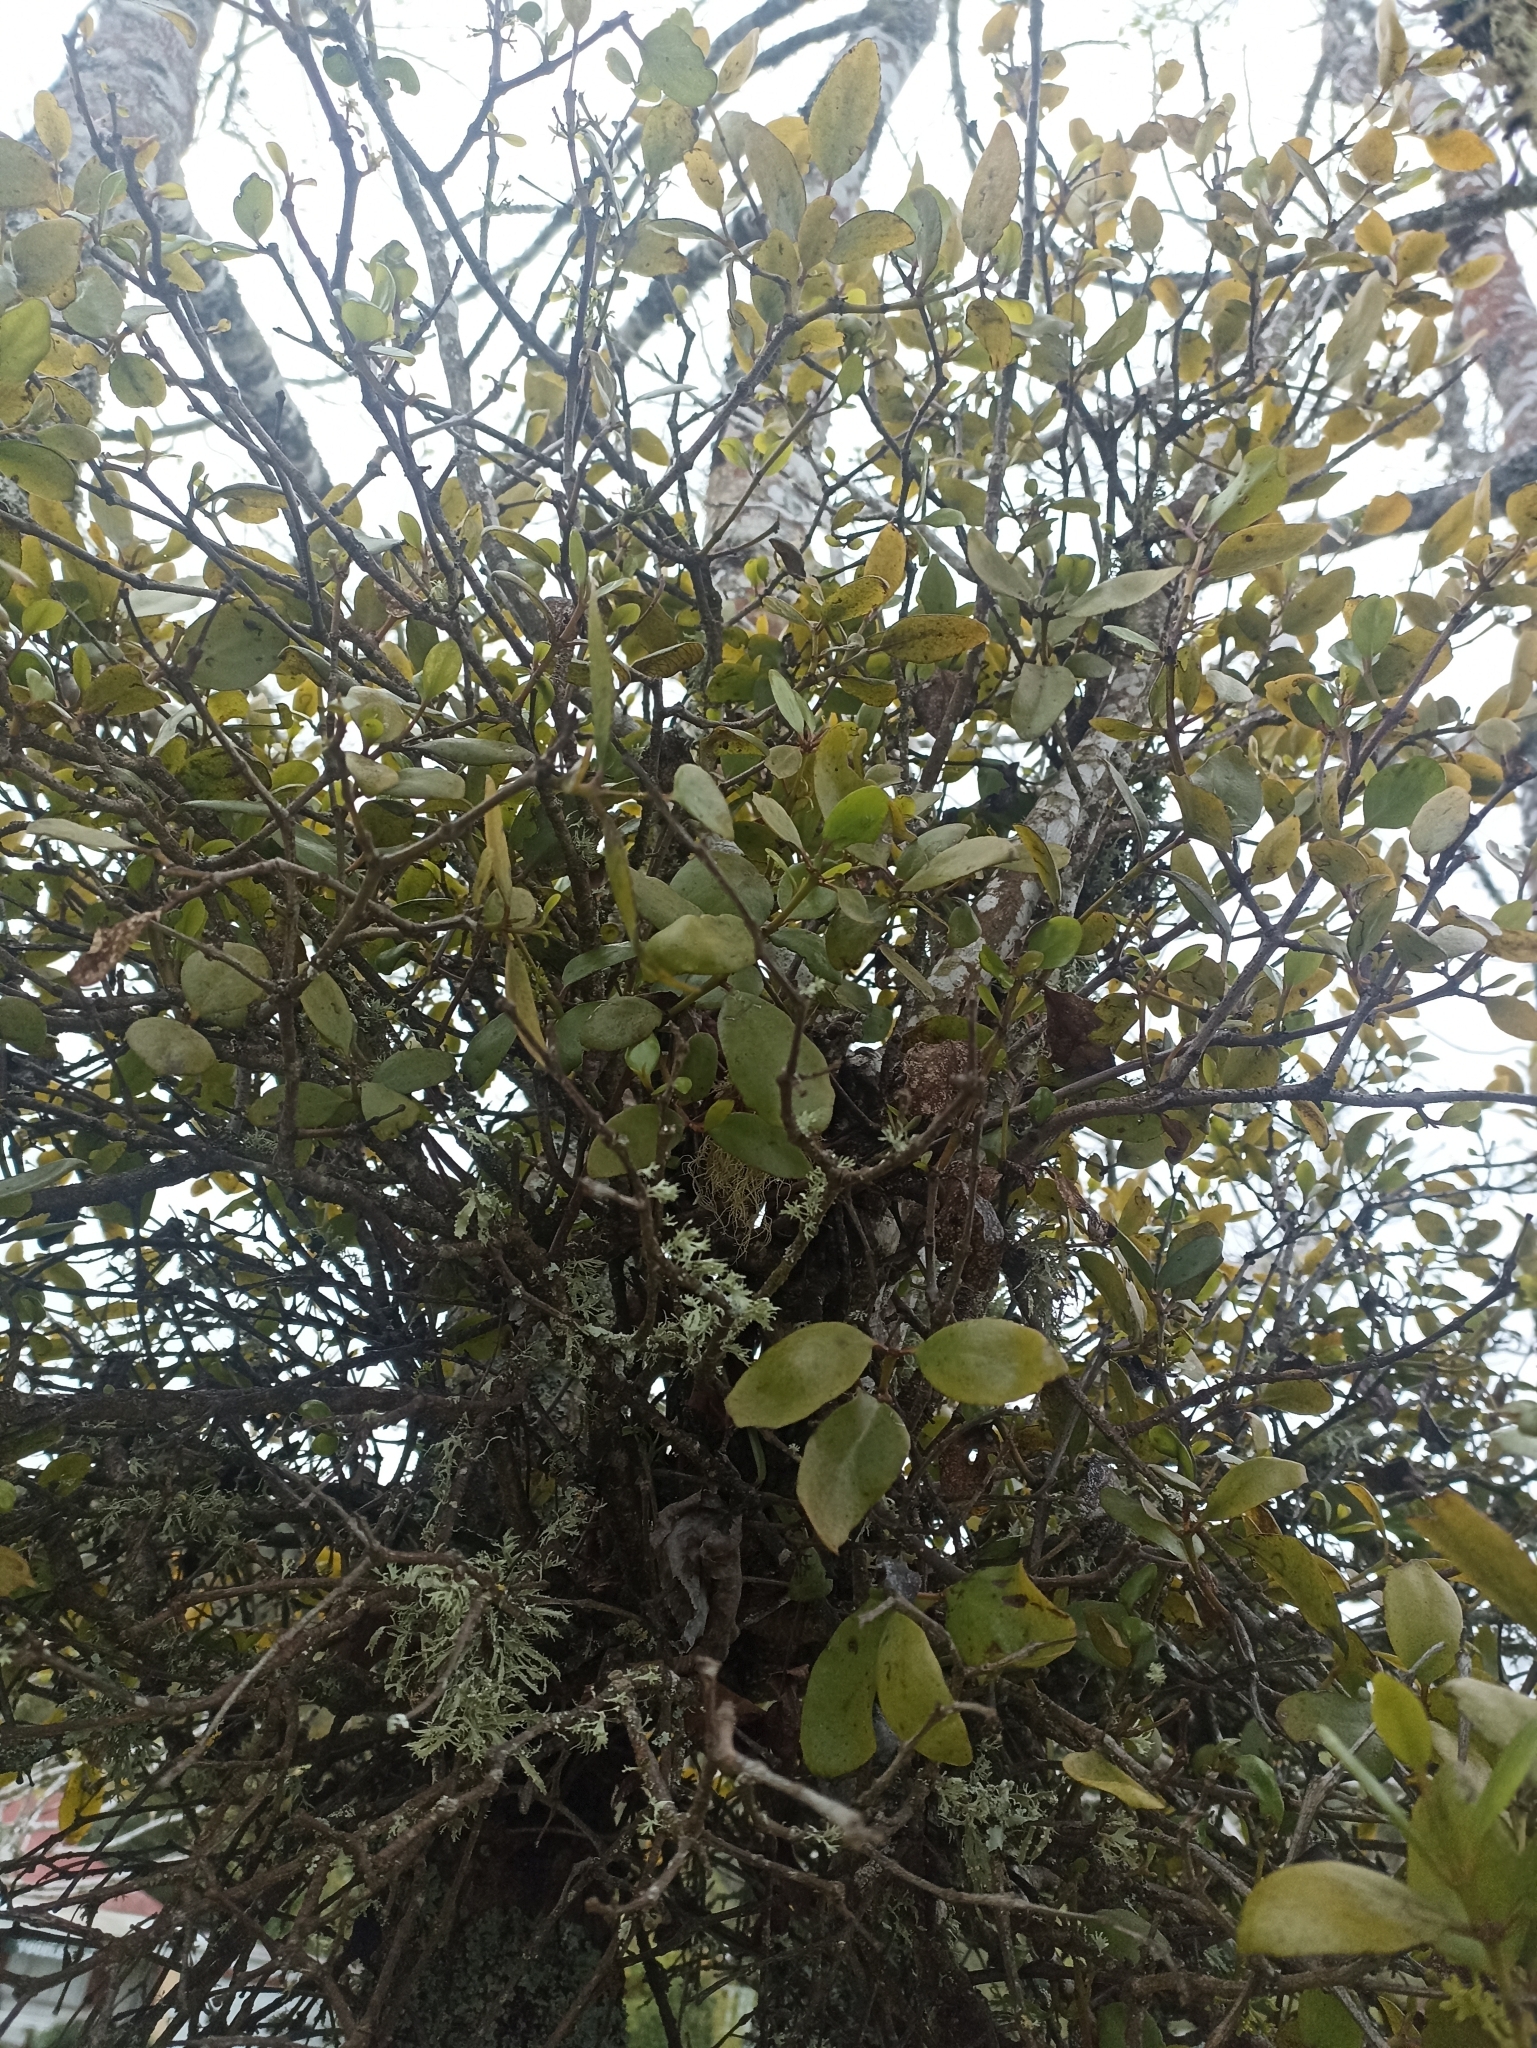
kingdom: Plantae
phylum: Tracheophyta
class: Magnoliopsida
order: Santalales
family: Loranthaceae
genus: Ileostylus
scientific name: Ileostylus micranthus
